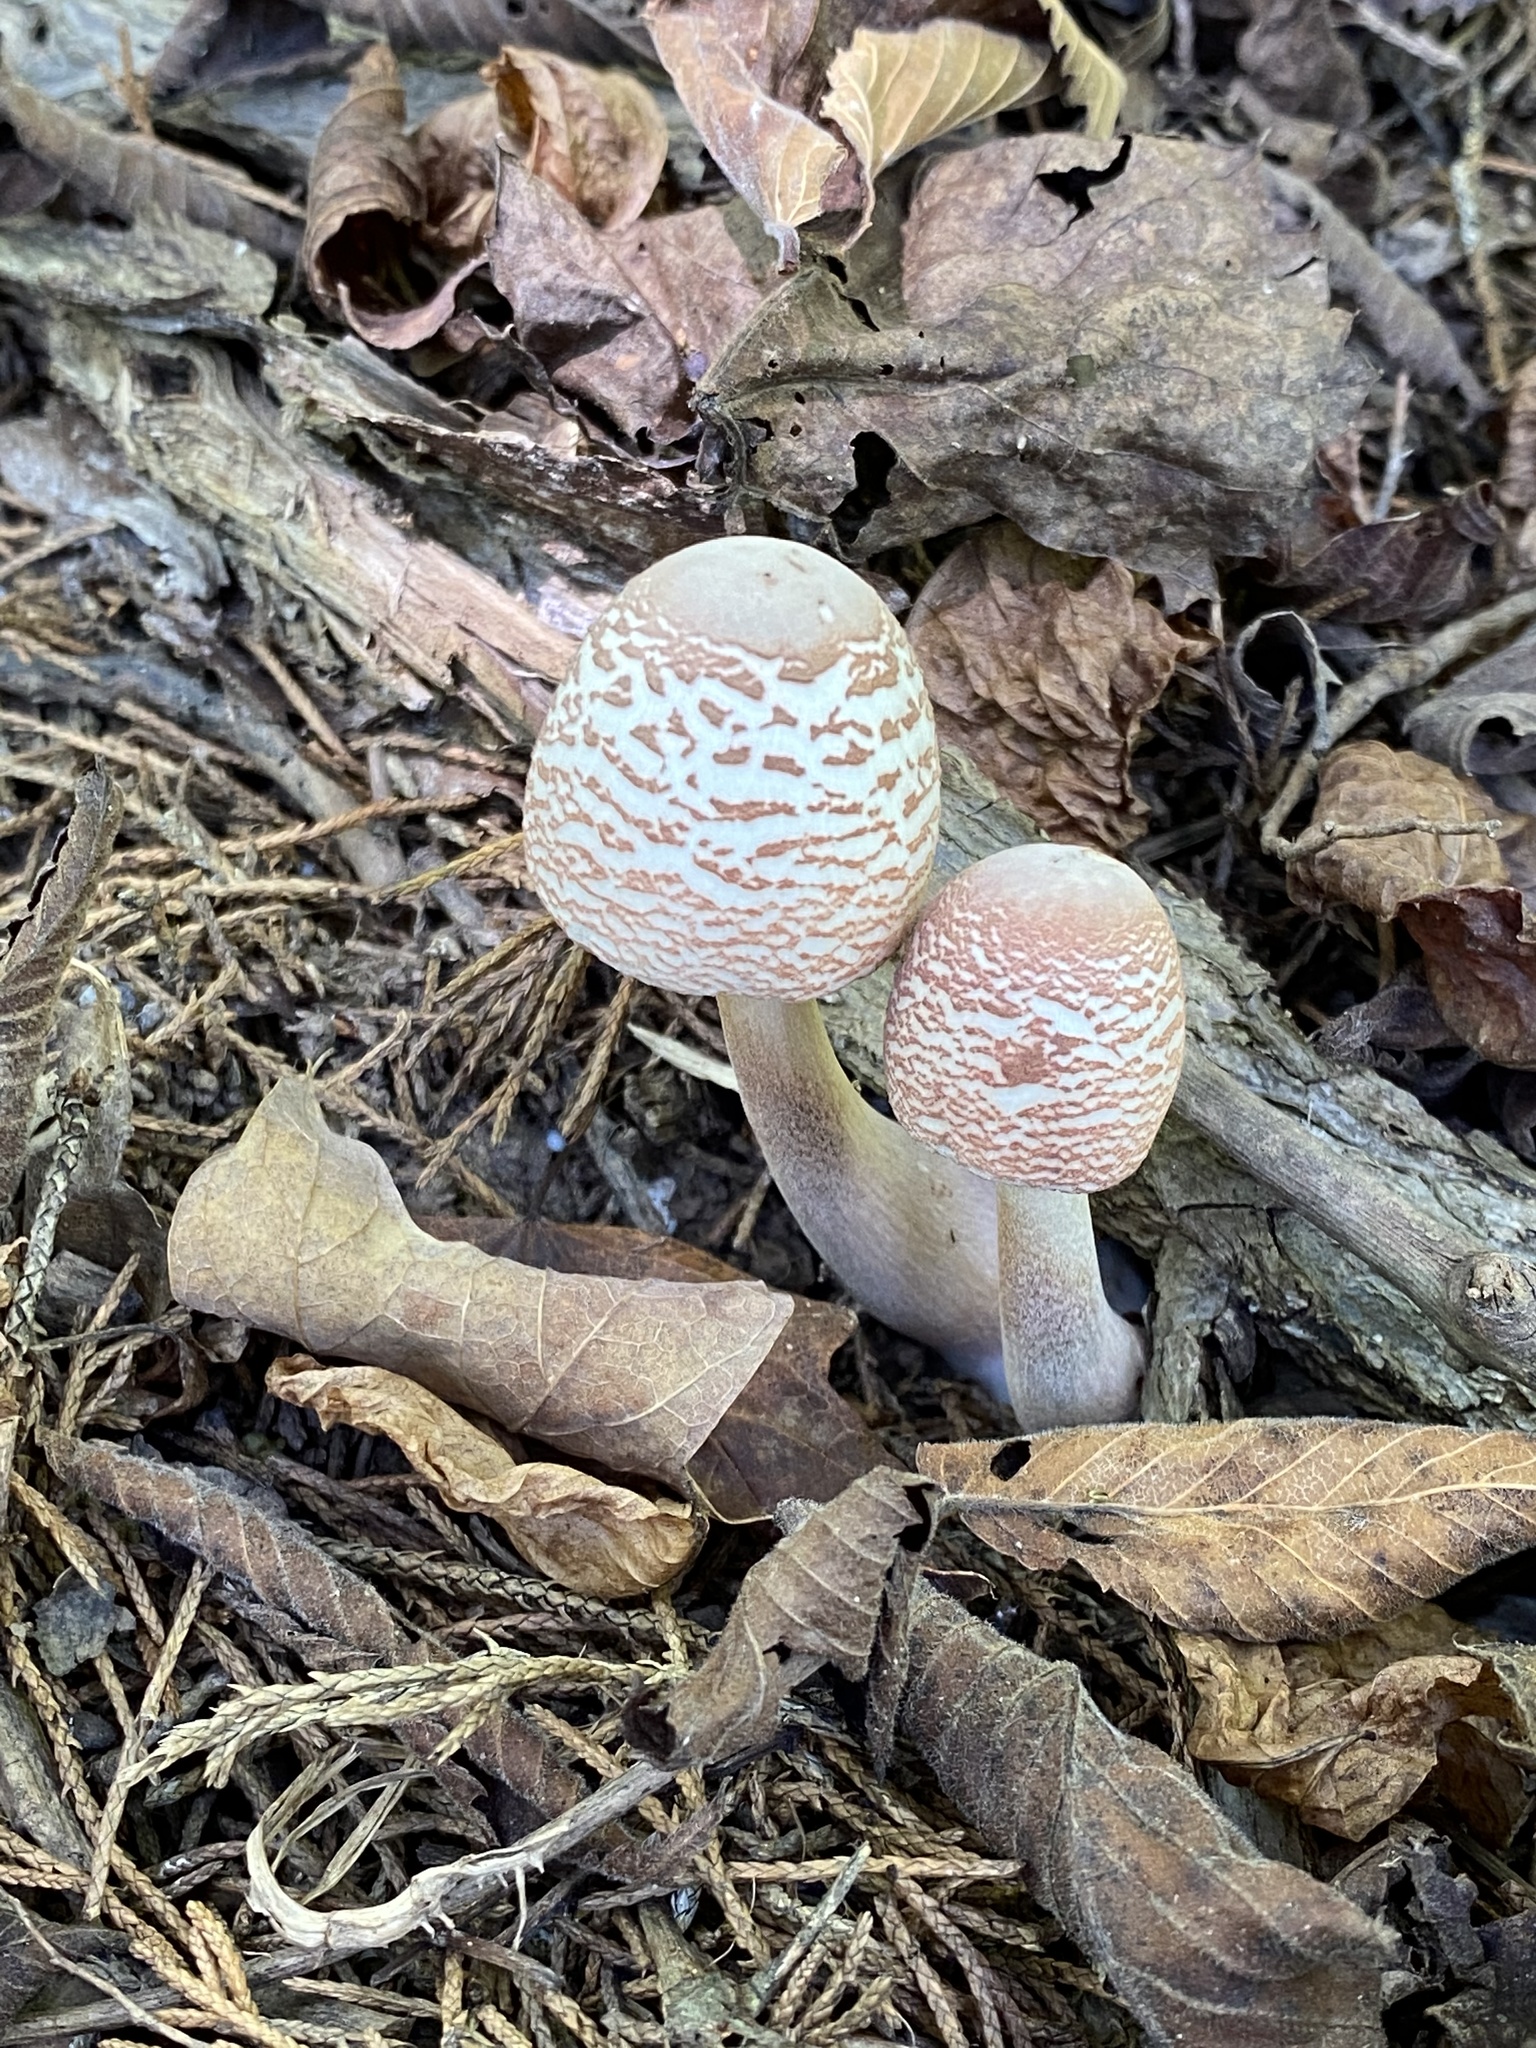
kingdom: Fungi
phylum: Basidiomycota
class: Agaricomycetes
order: Agaricales
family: Agaricaceae
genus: Leucoagaricus
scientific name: Leucoagaricus americanus
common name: Reddening lepiota
